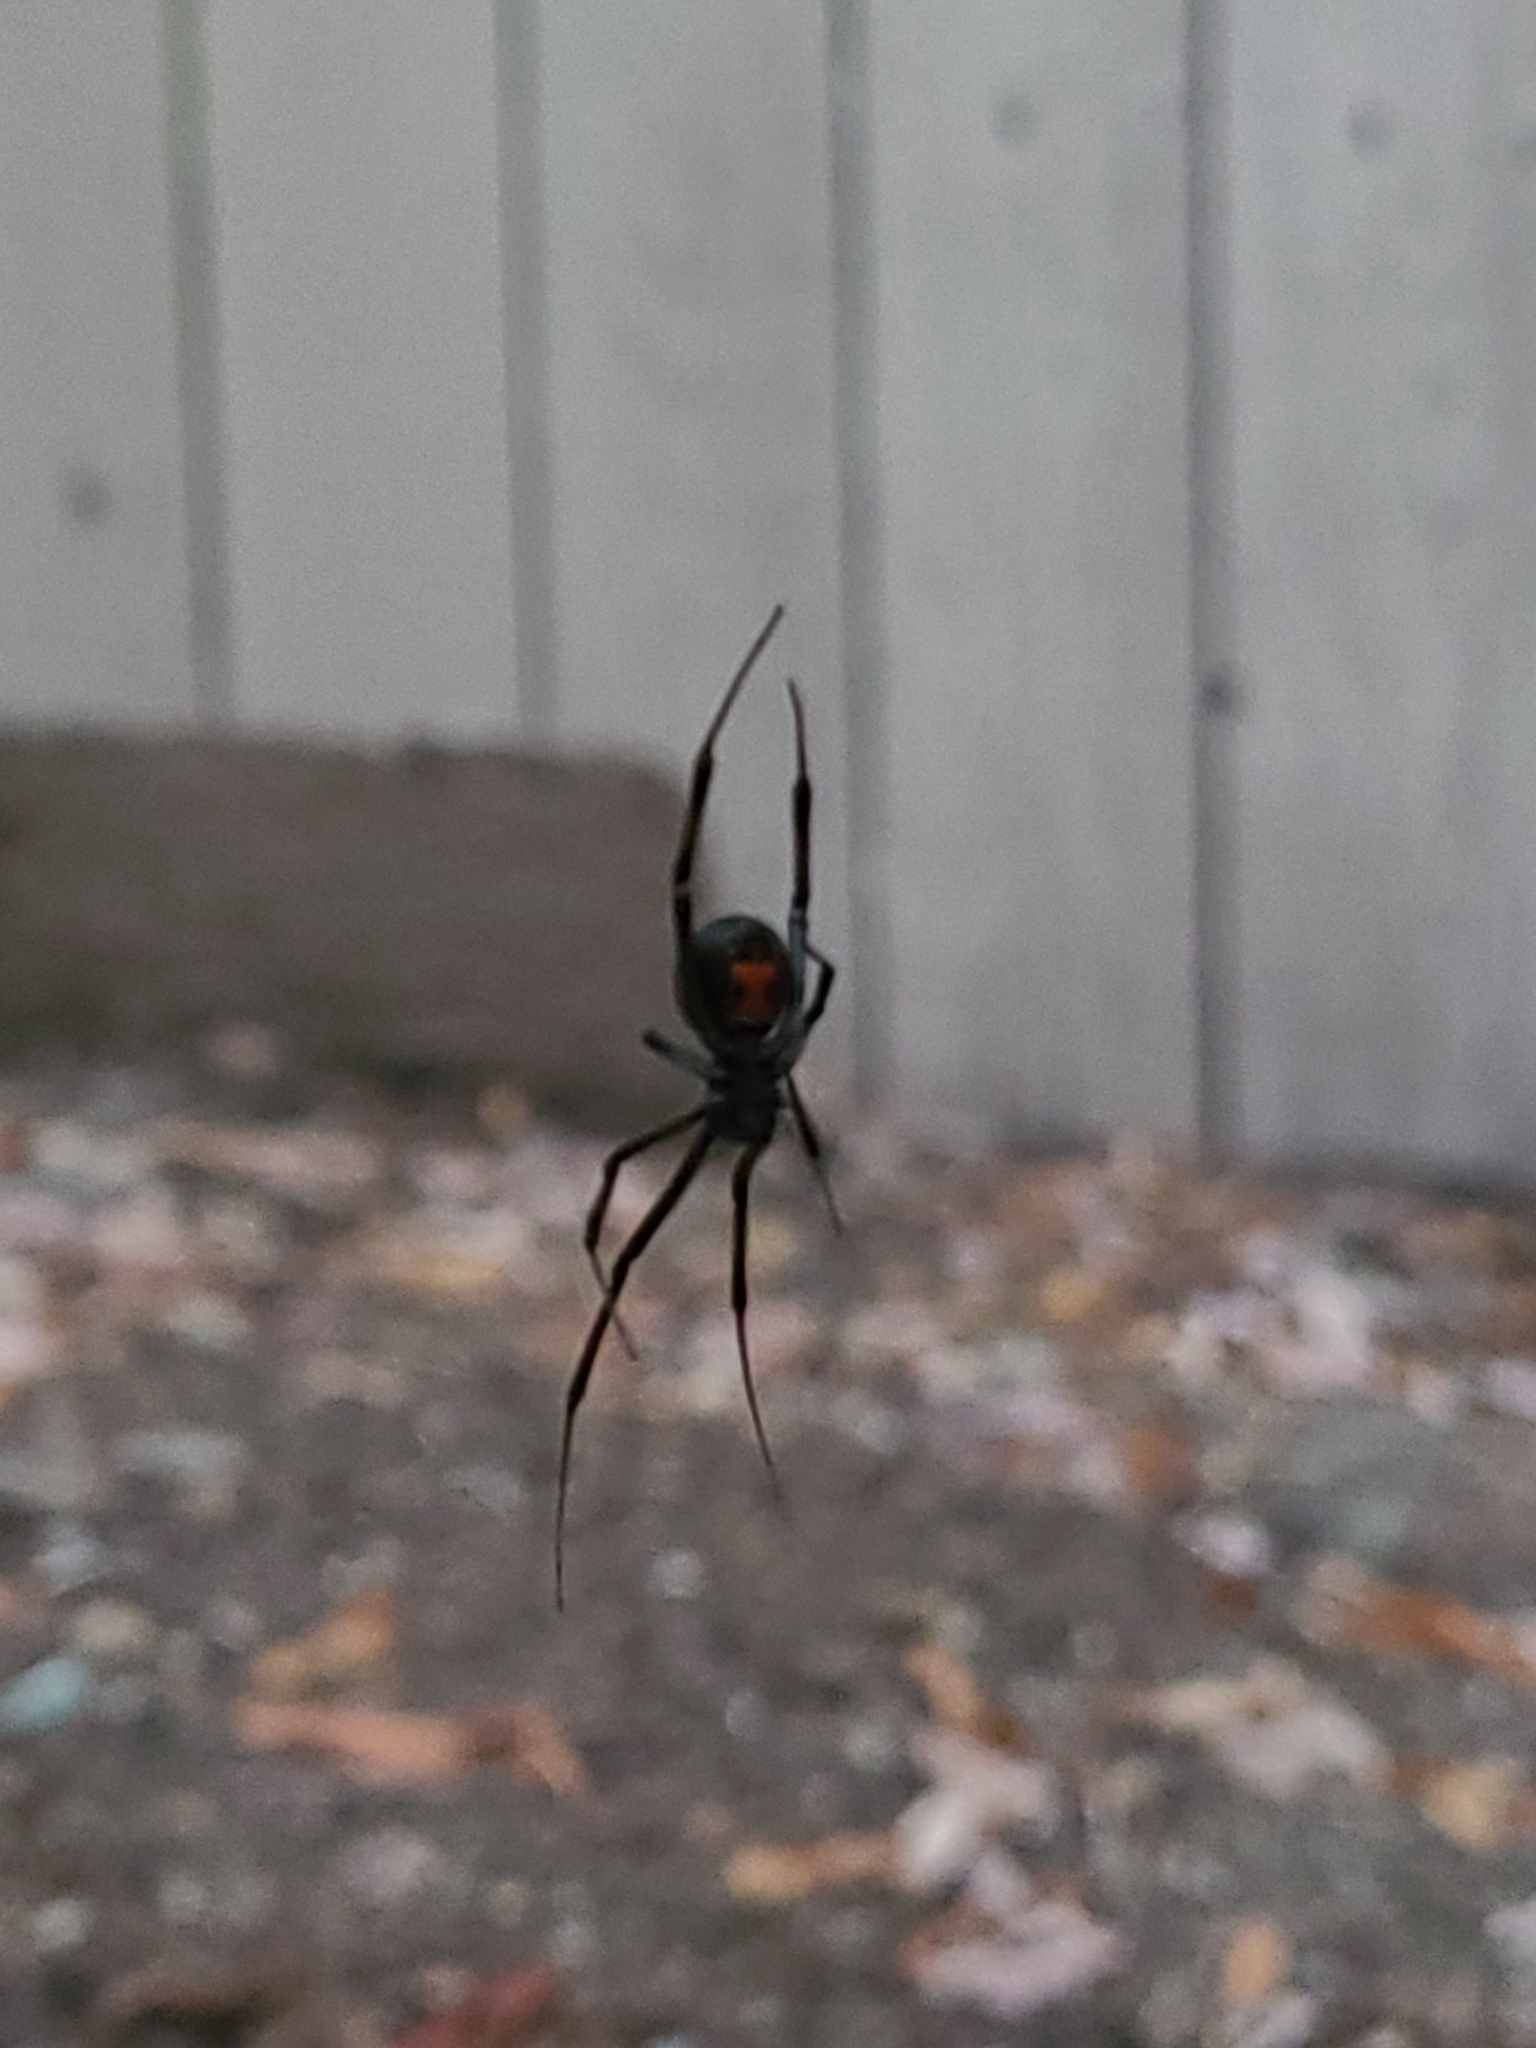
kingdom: Animalia
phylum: Arthropoda
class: Arachnida
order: Araneae
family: Theridiidae
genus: Latrodectus
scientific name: Latrodectus hesperus
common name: Western black widow
